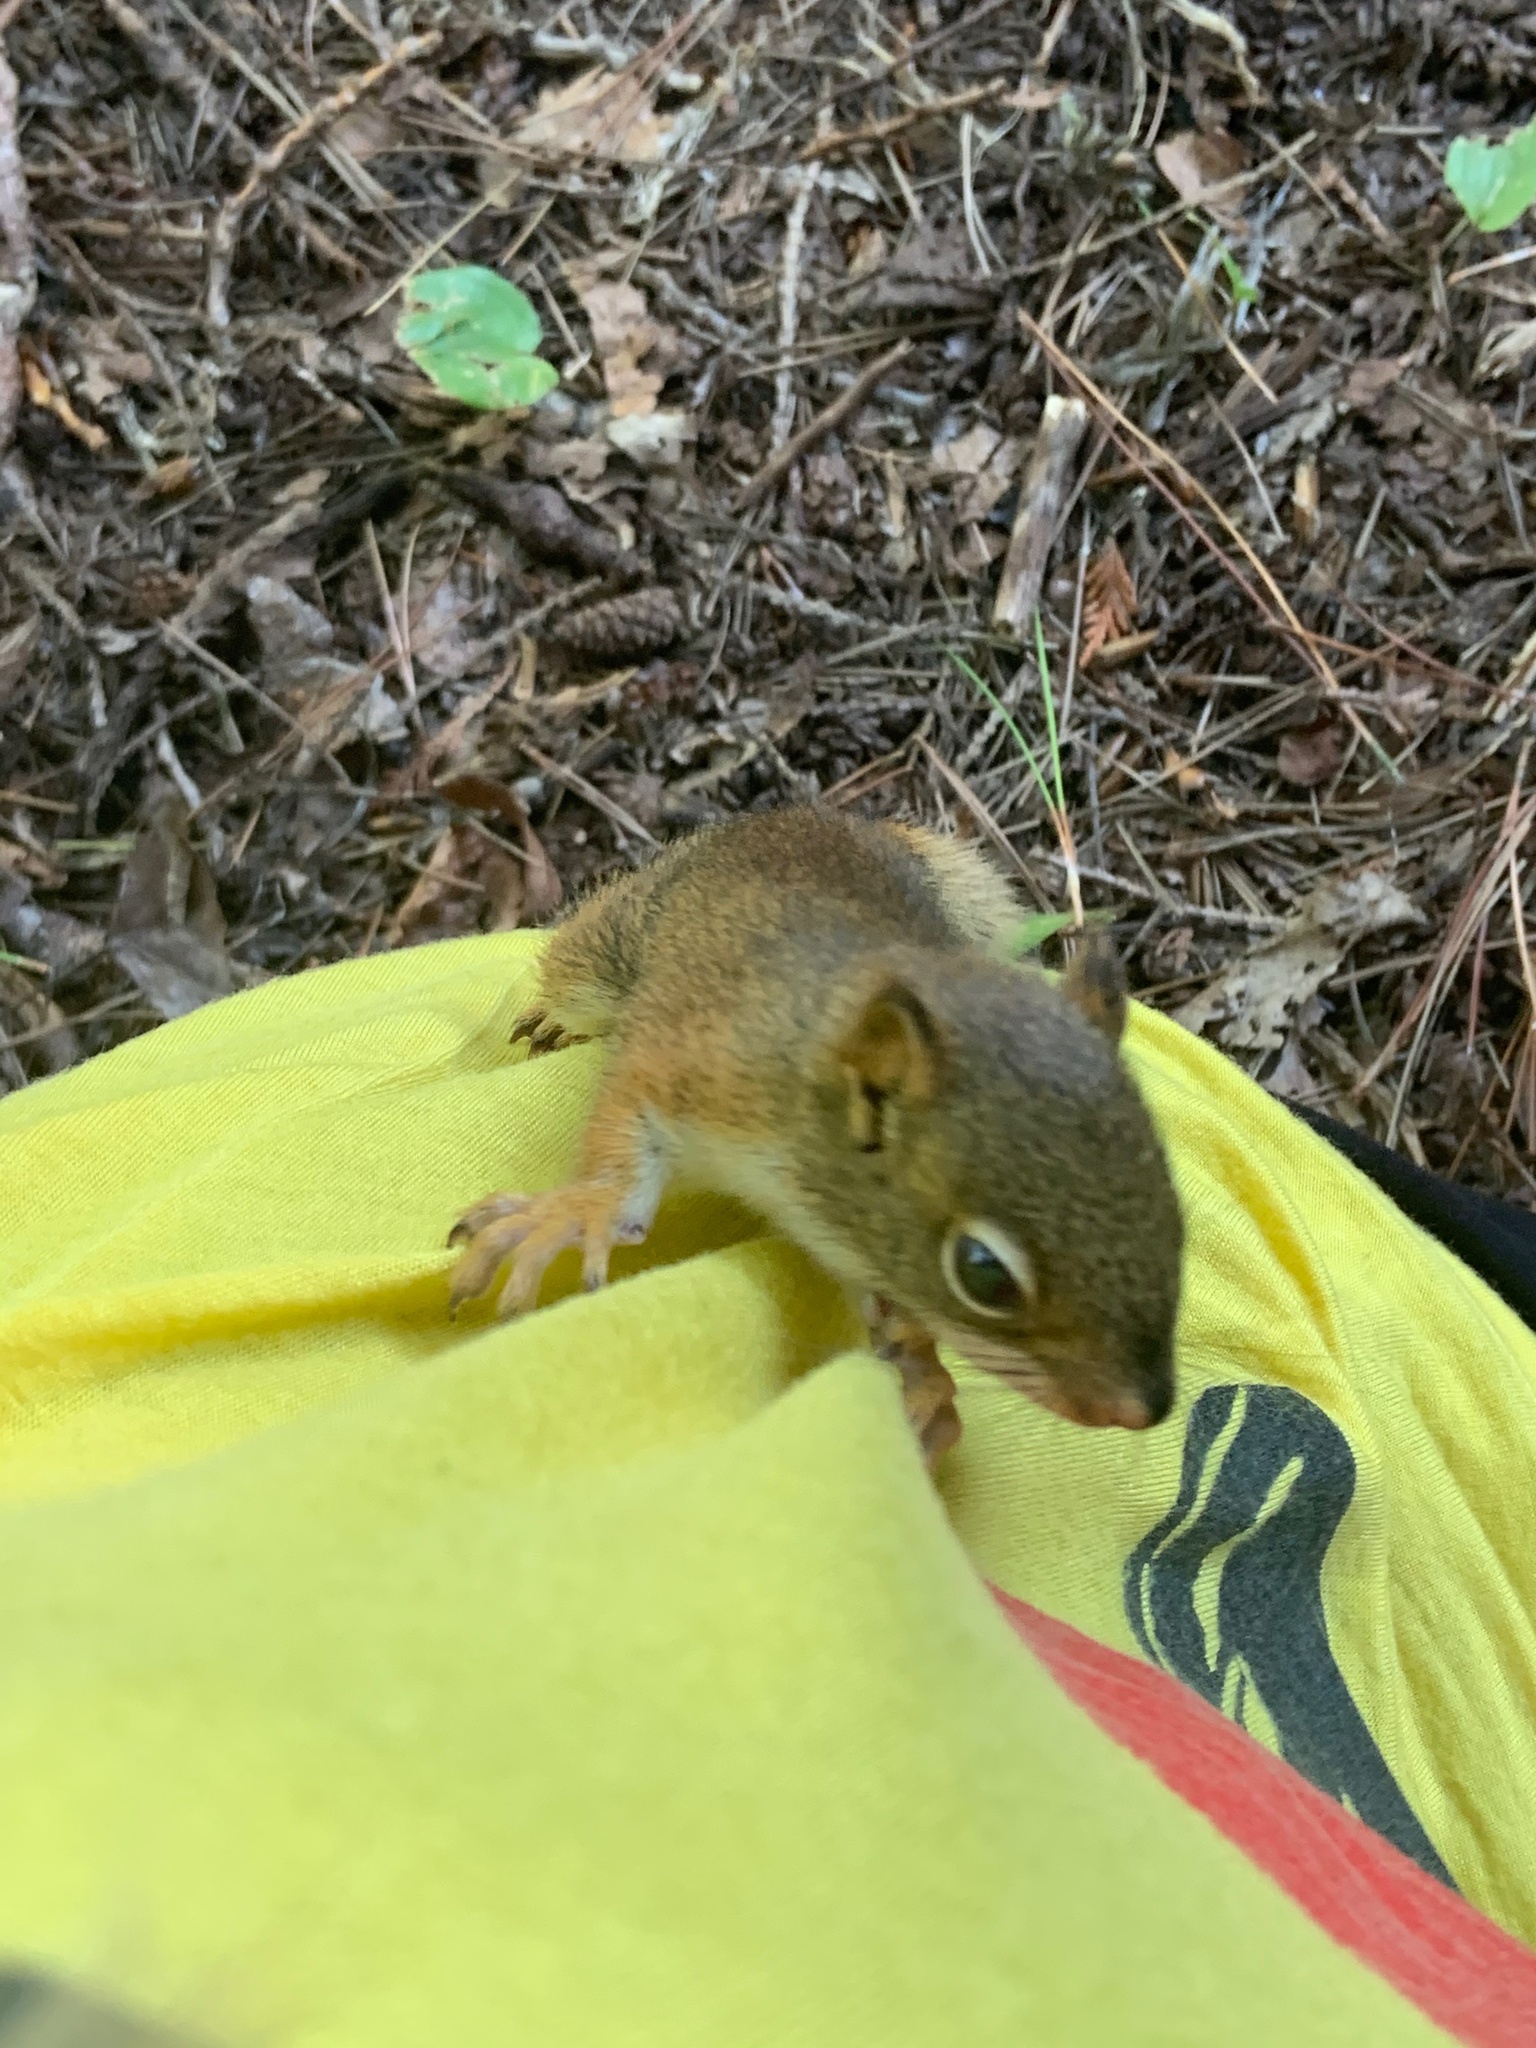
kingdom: Animalia
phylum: Chordata
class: Mammalia
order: Rodentia
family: Sciuridae
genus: Tamiasciurus
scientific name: Tamiasciurus hudsonicus
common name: Red squirrel
